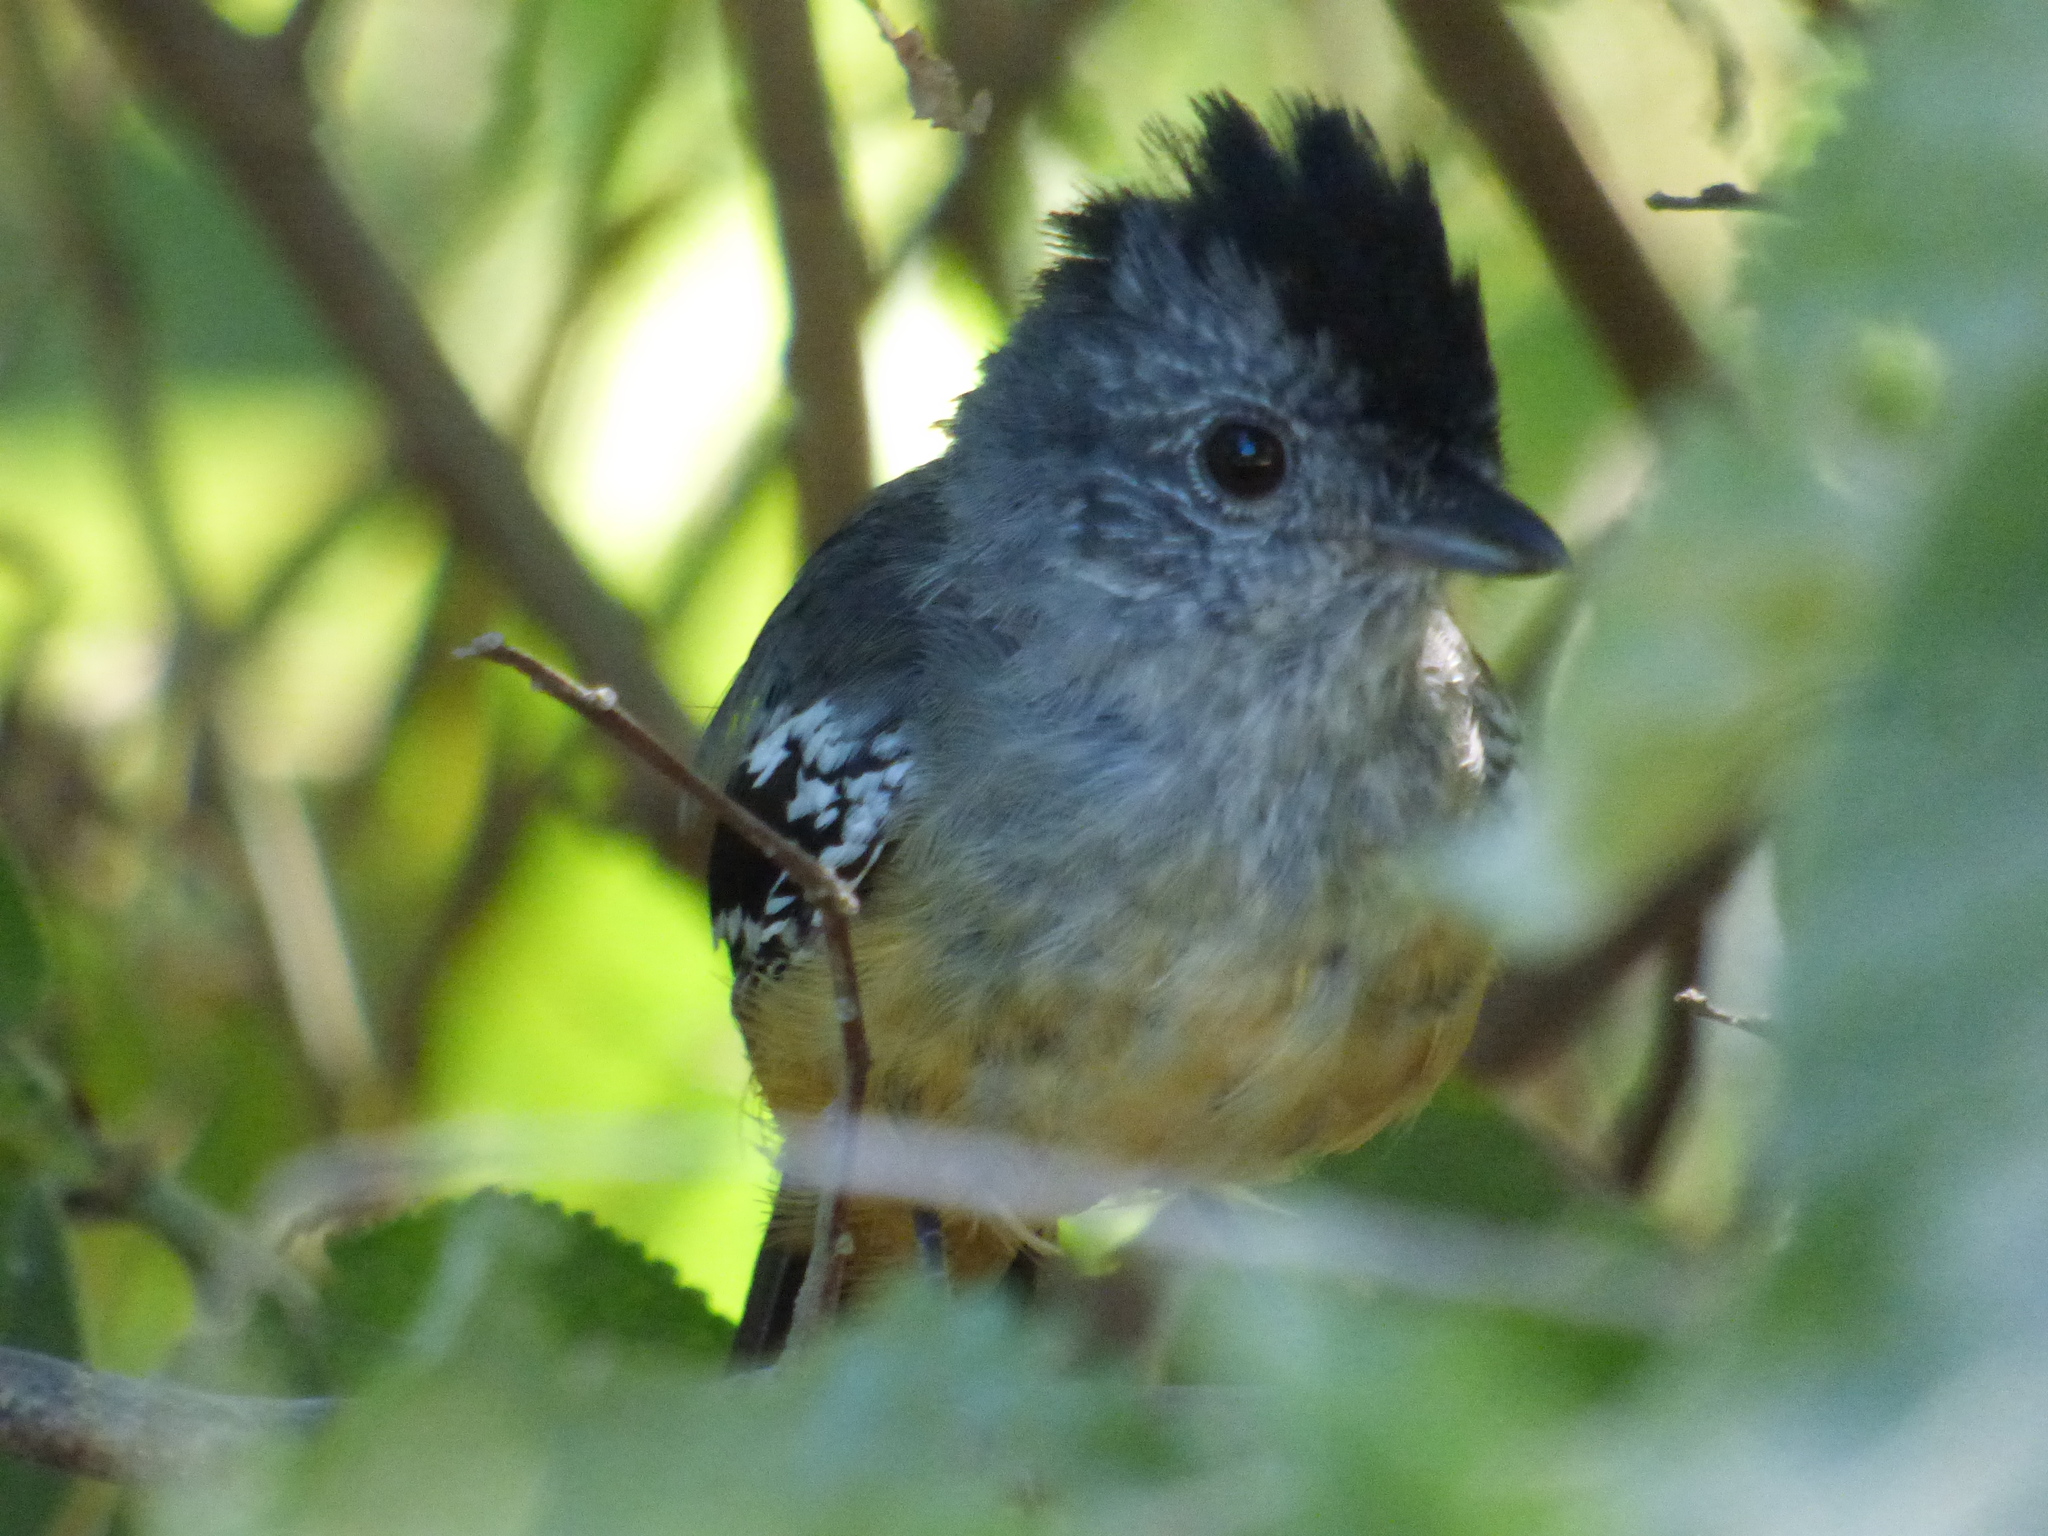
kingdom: Animalia
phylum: Chordata
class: Aves
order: Passeriformes
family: Thamnophilidae
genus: Thamnophilus
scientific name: Thamnophilus caerulescens
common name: Variable antshrike
